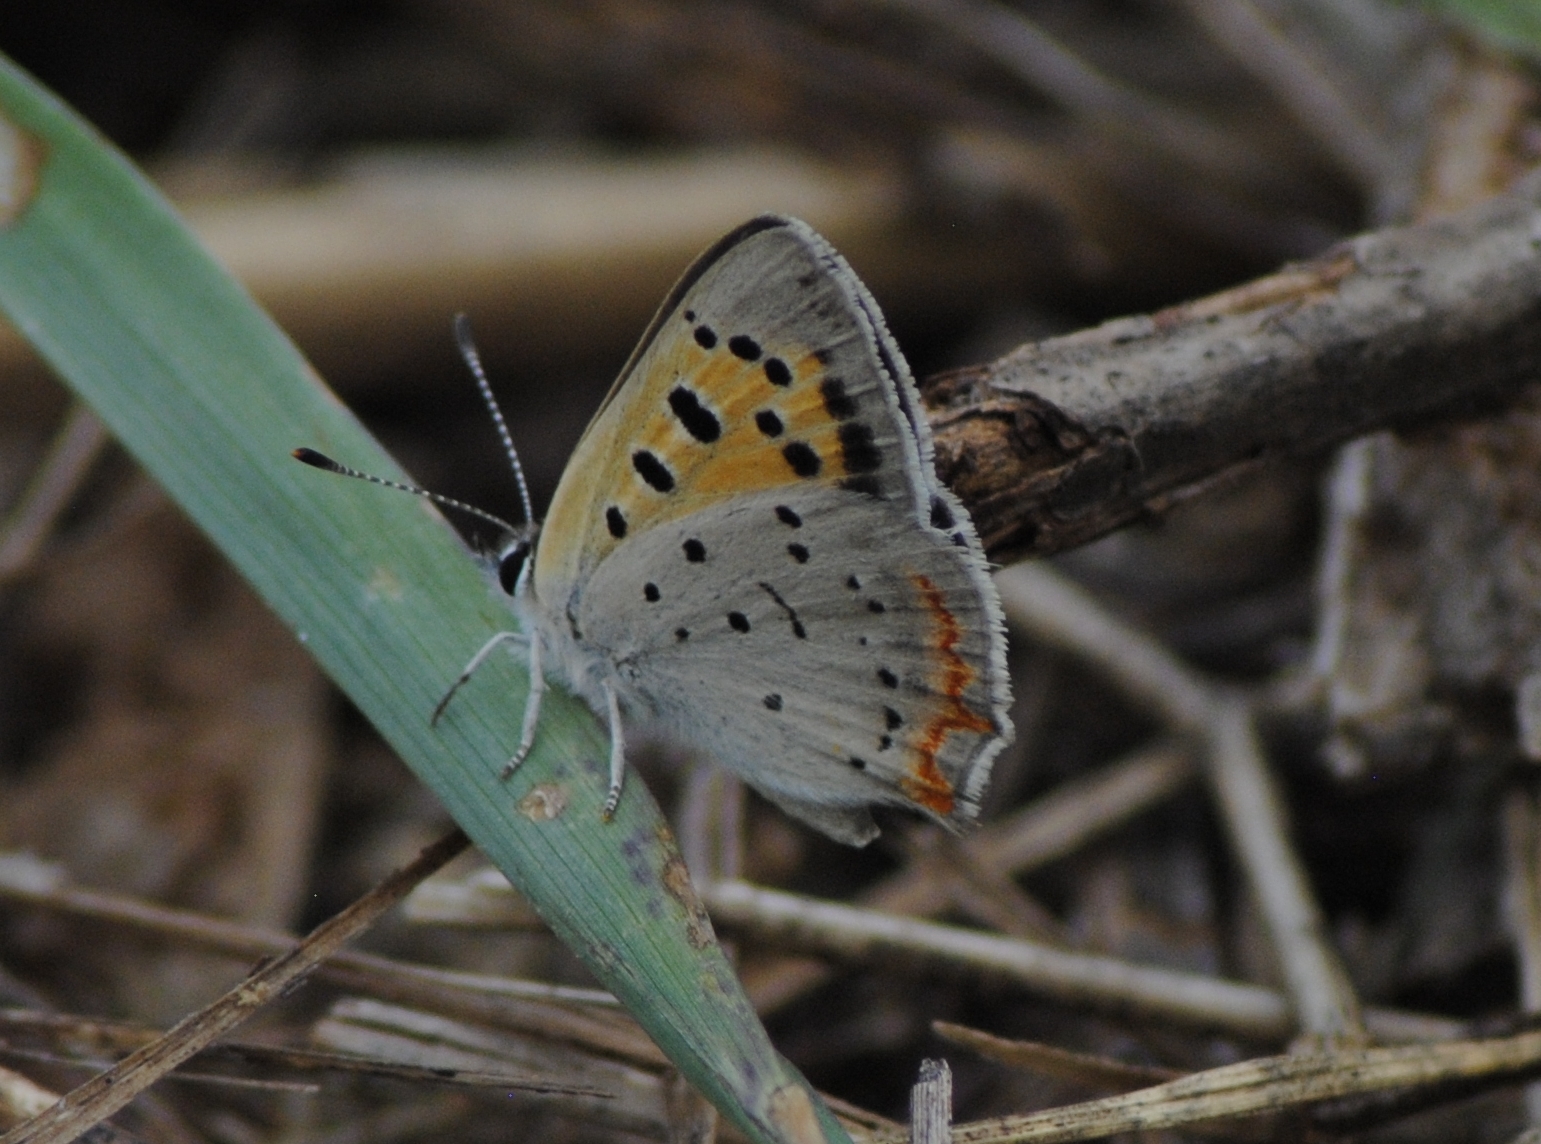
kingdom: Animalia
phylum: Arthropoda
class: Insecta
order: Lepidoptera
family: Lycaenidae
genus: Lycaena
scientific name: Lycaena hypophlaeas
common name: American copper
